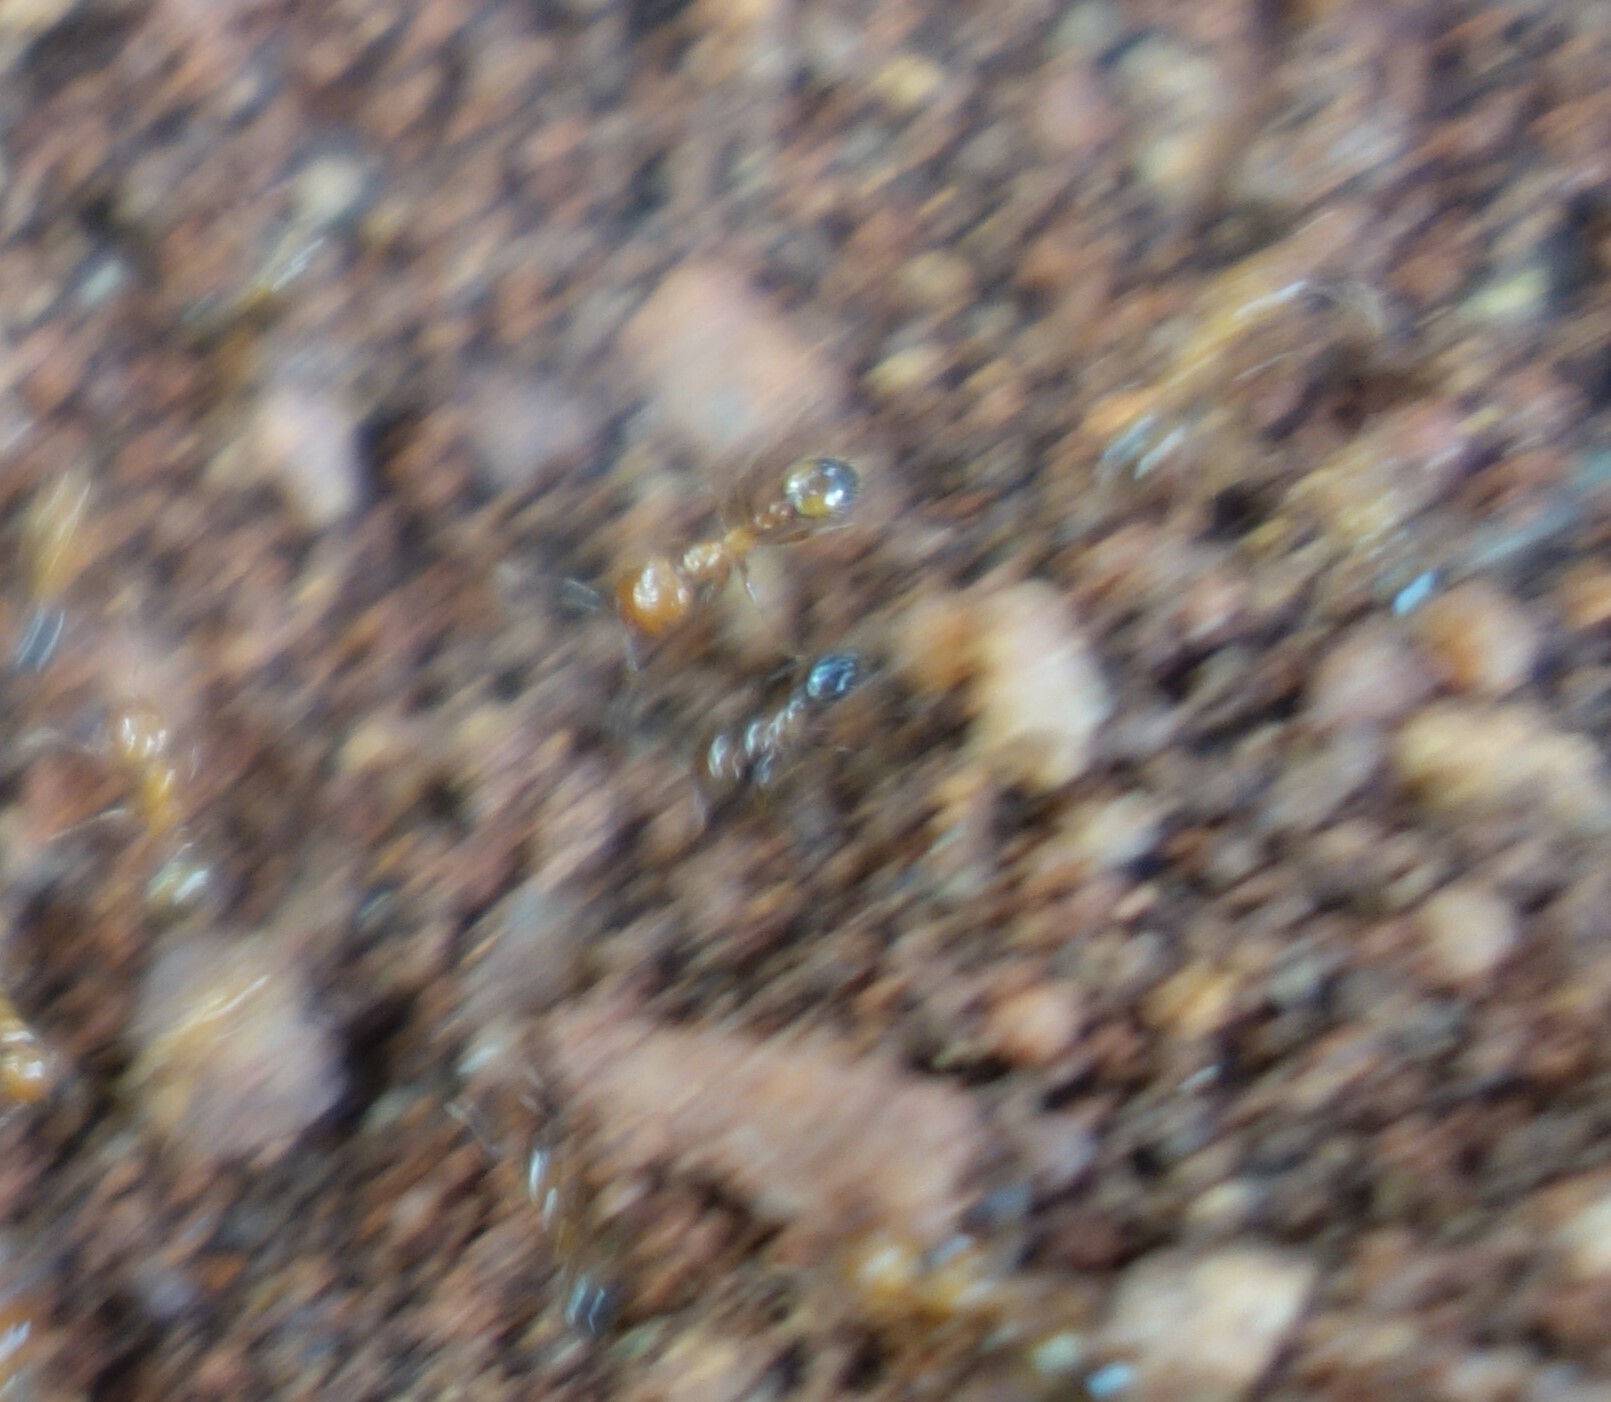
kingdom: Animalia
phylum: Arthropoda
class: Insecta
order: Hymenoptera
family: Formicidae
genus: Solenopsis
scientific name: Solenopsis geminata
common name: Tropical fire ant
